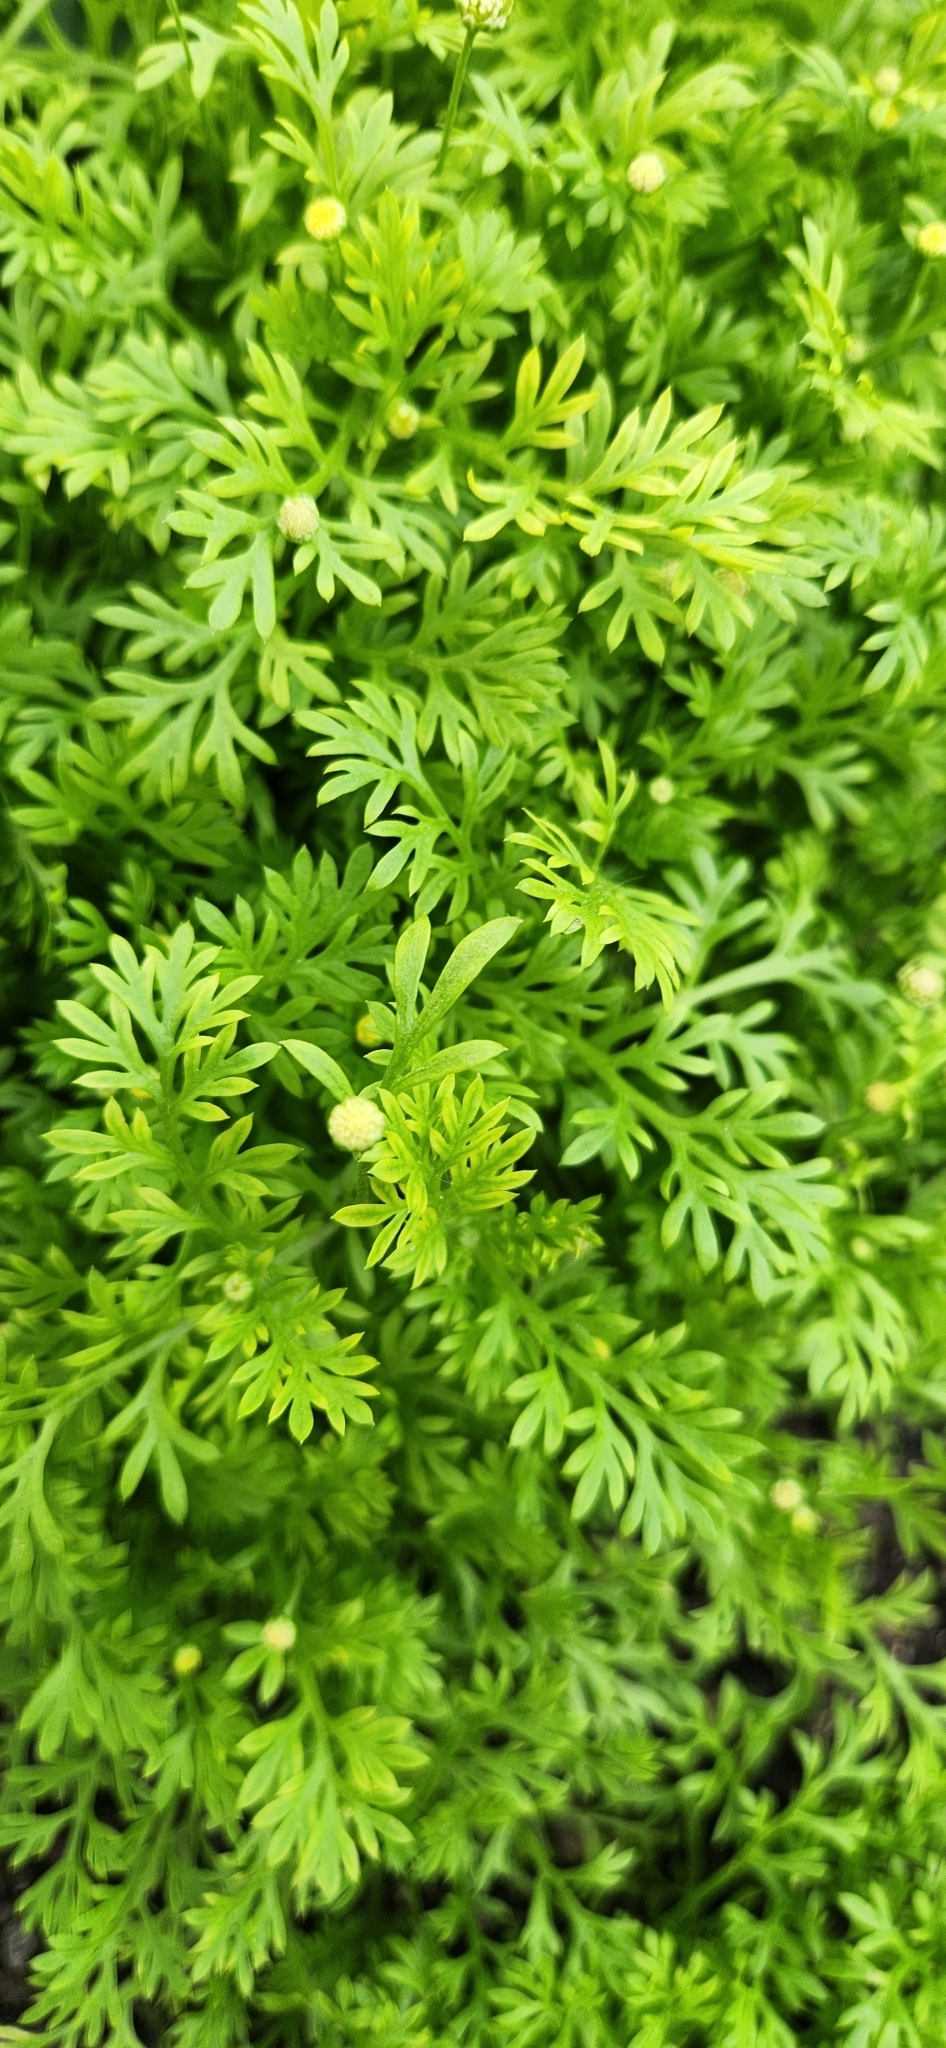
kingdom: Plantae
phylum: Tracheophyta
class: Magnoliopsida
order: Asterales
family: Asteraceae
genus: Cotula
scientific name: Cotula australis
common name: Australian waterbuttons
